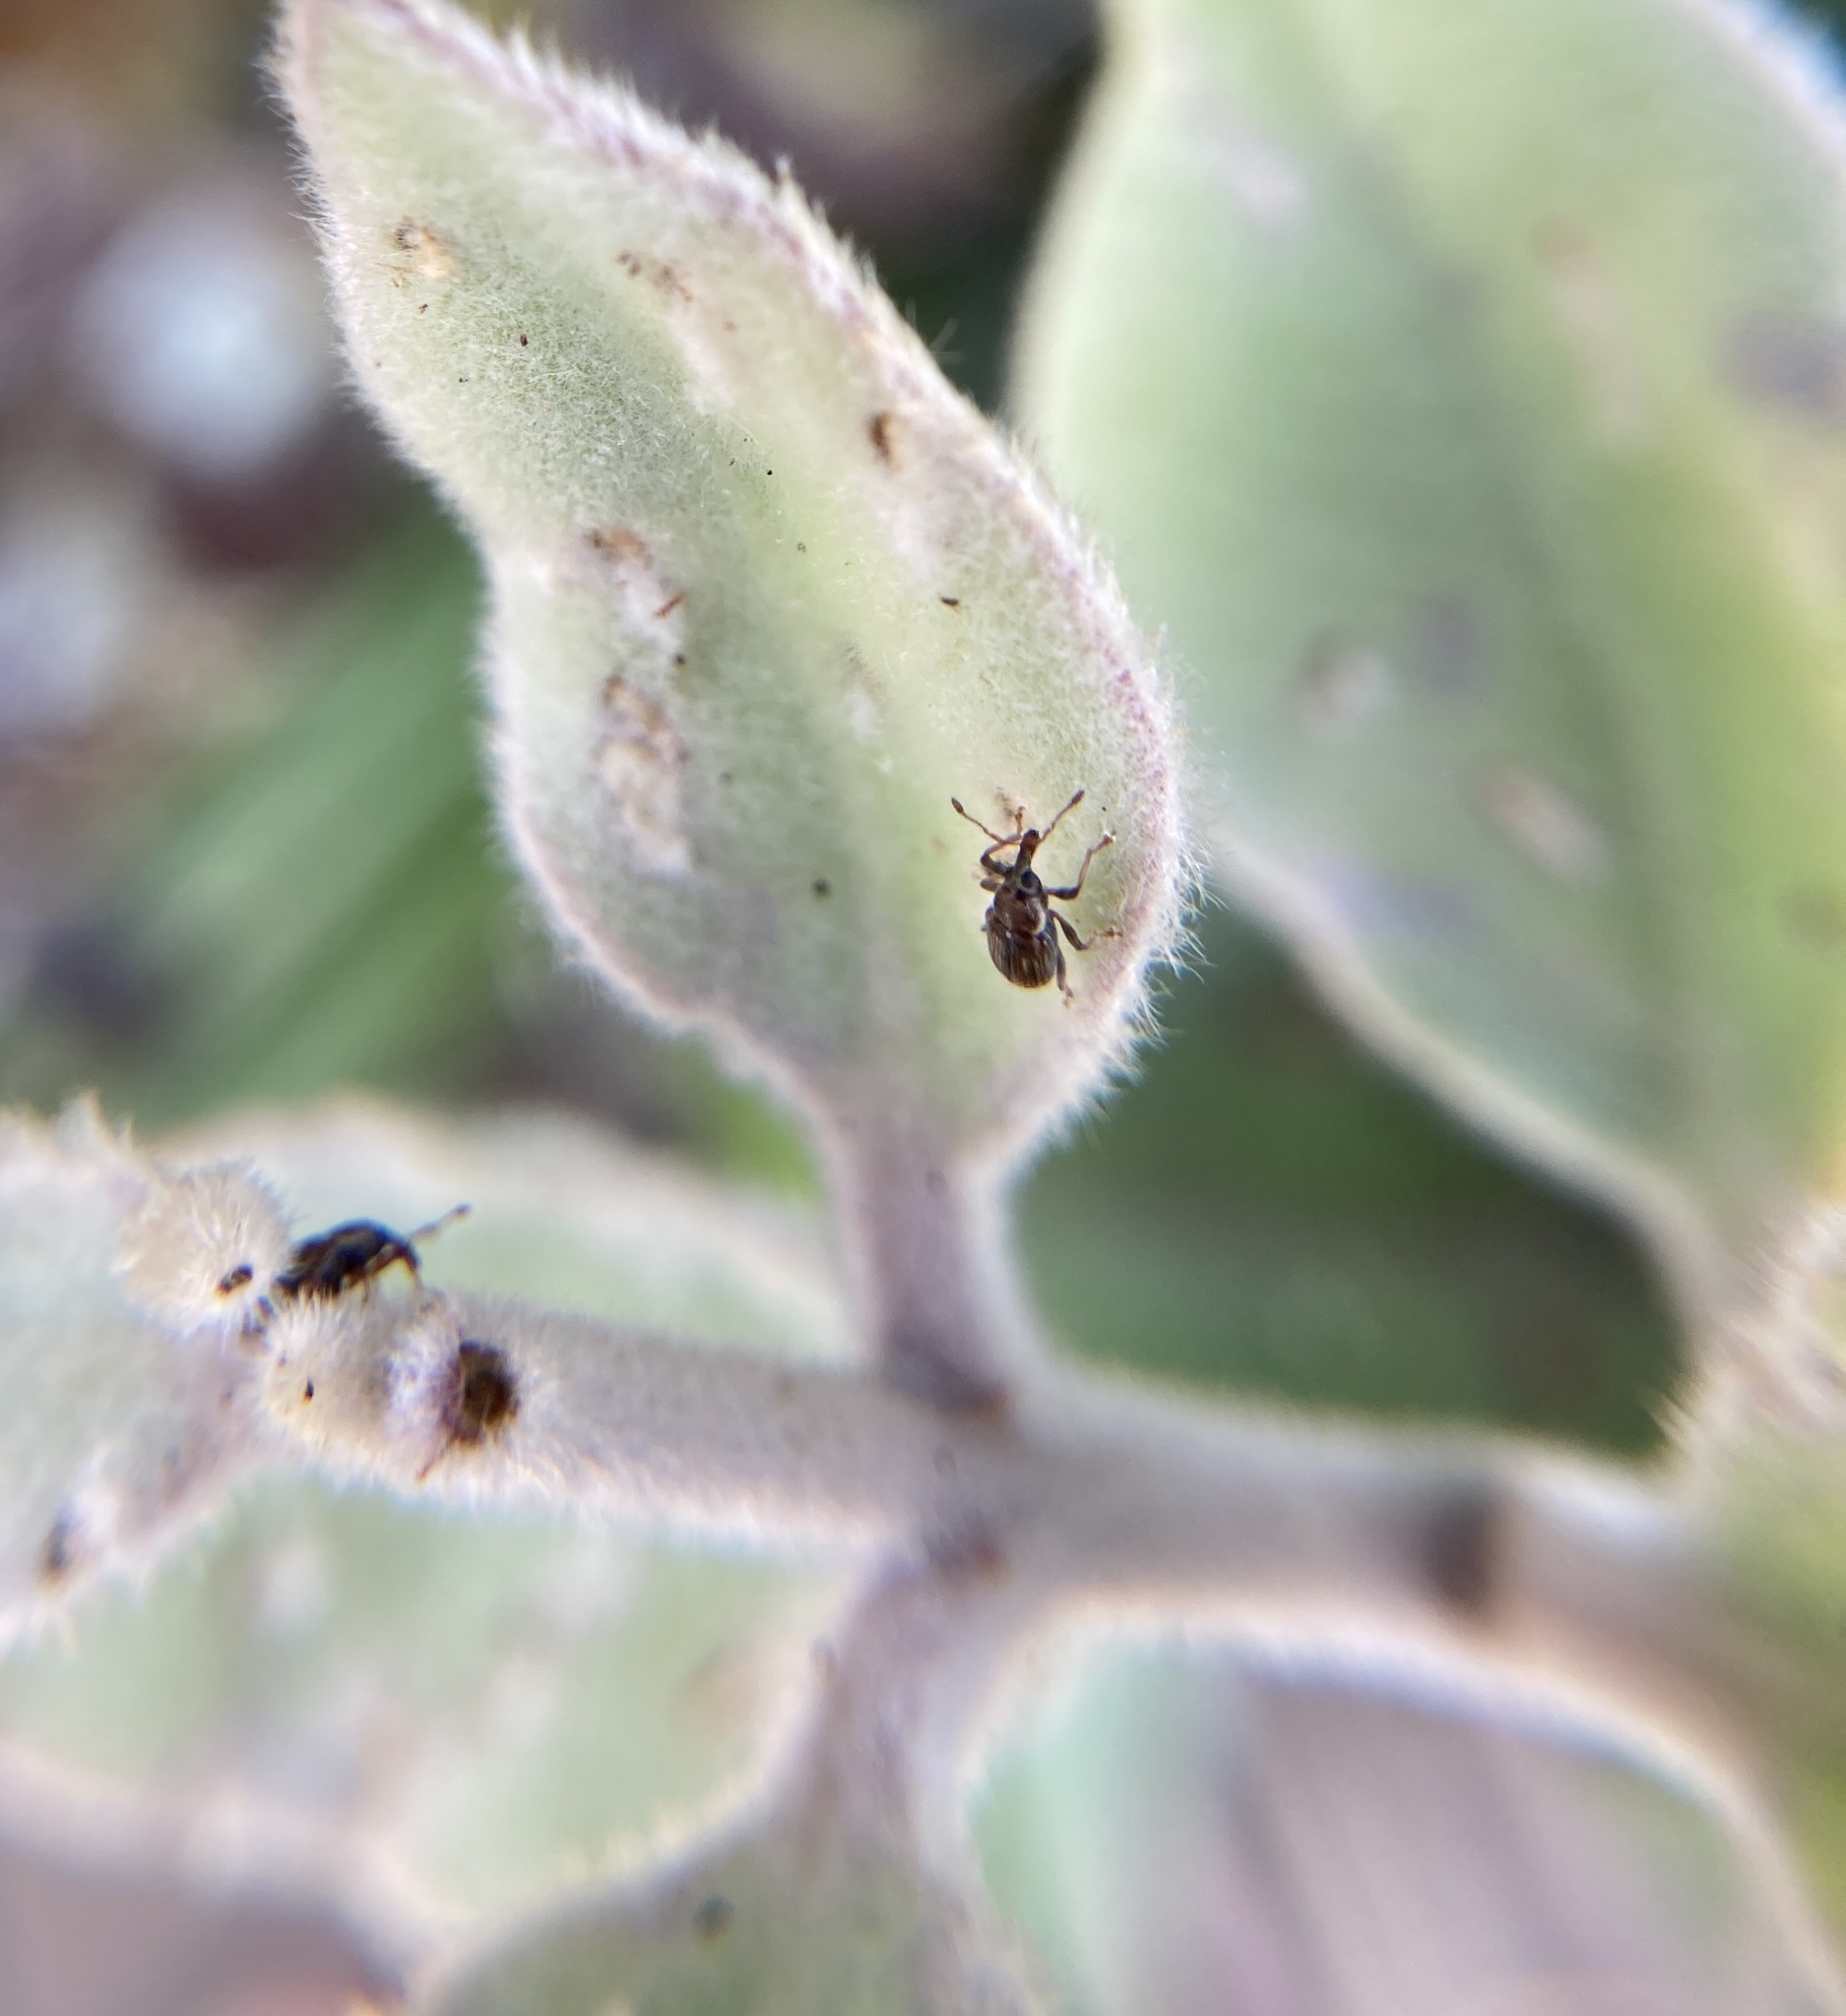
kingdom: Animalia
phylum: Arthropoda
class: Insecta
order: Coleoptera
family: Curculionidae
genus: Neomycta
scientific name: Neomycta rubida
